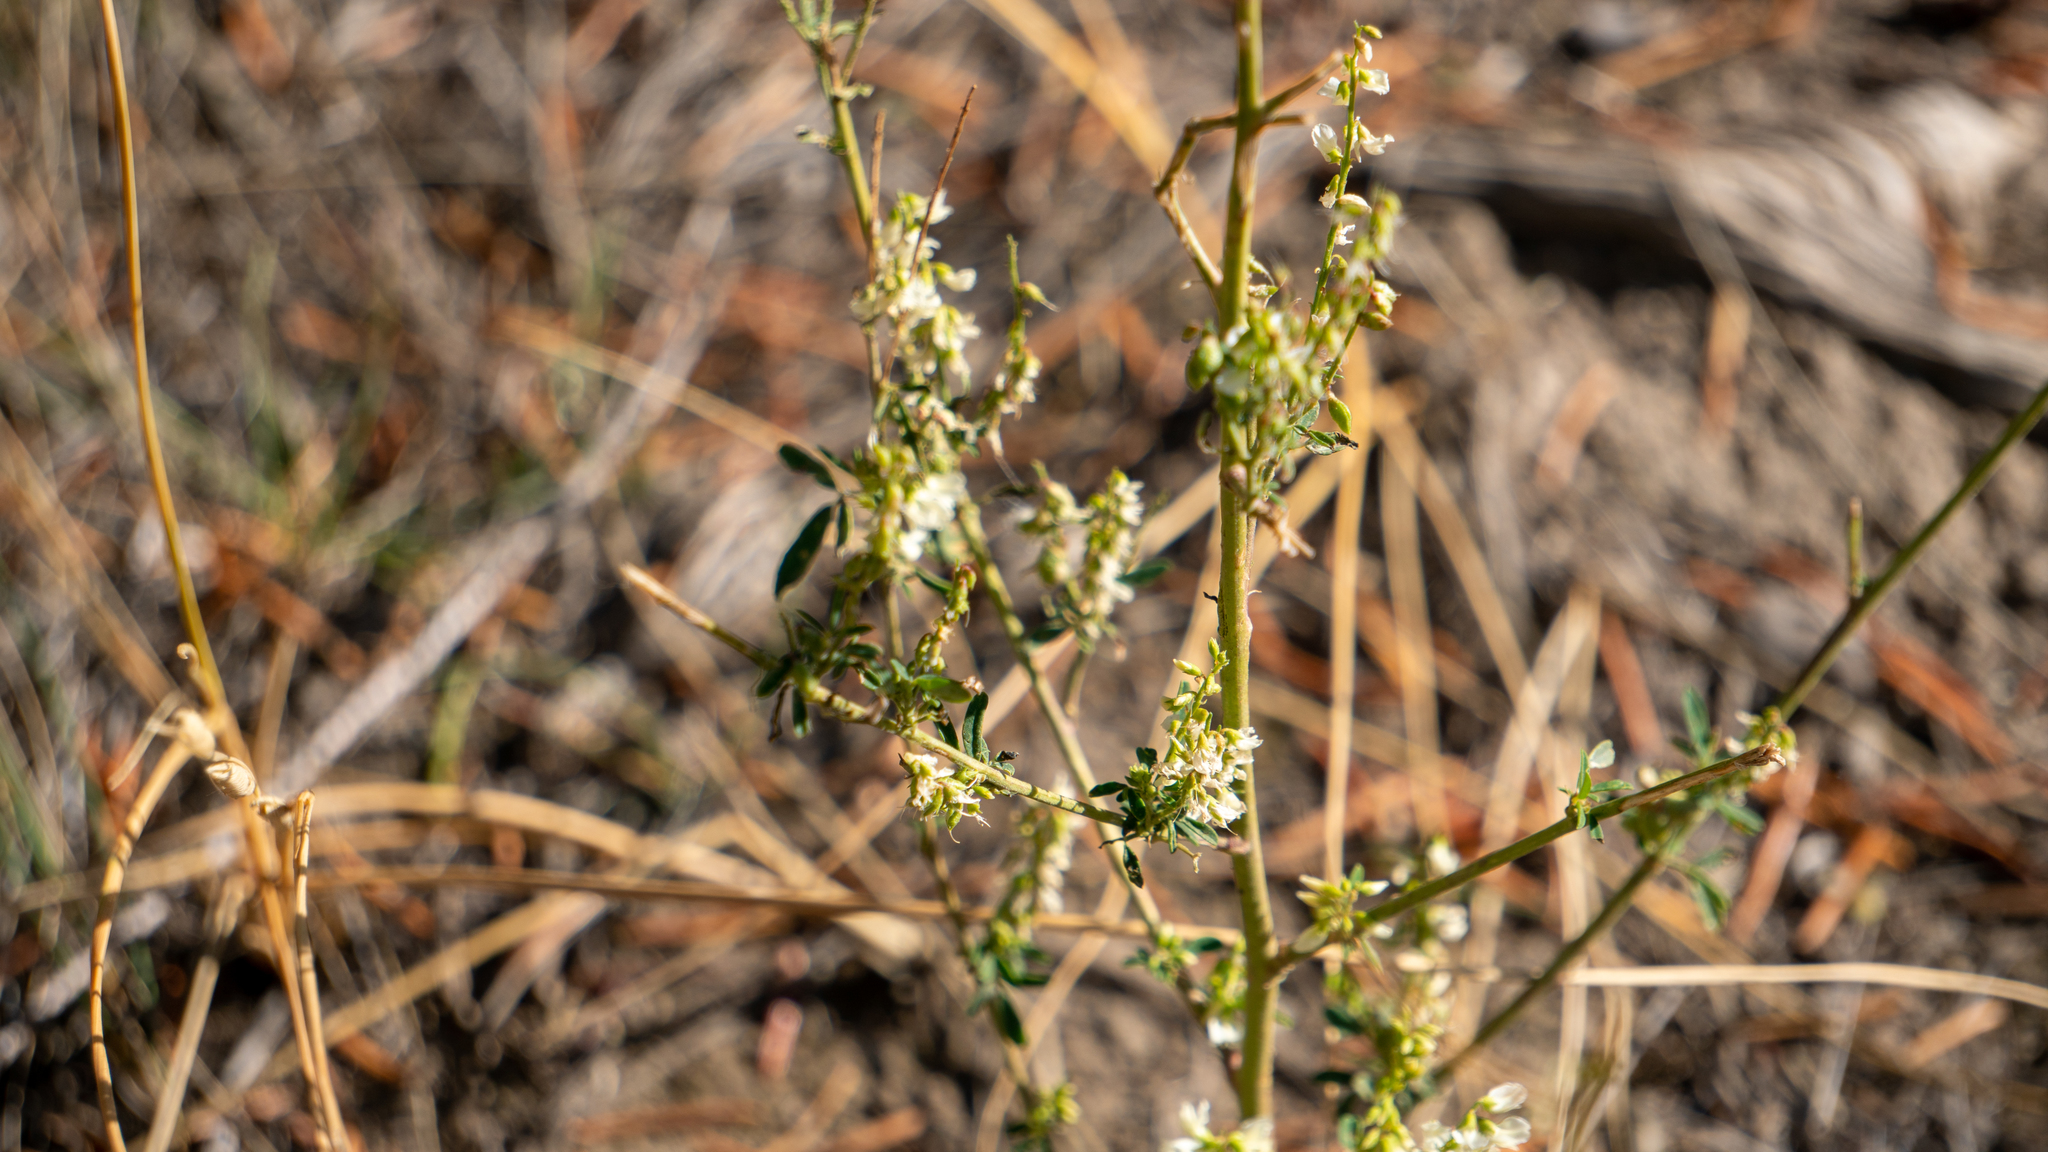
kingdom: Plantae
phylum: Tracheophyta
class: Magnoliopsida
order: Fabales
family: Fabaceae
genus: Melilotus
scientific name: Melilotus albus
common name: White melilot
